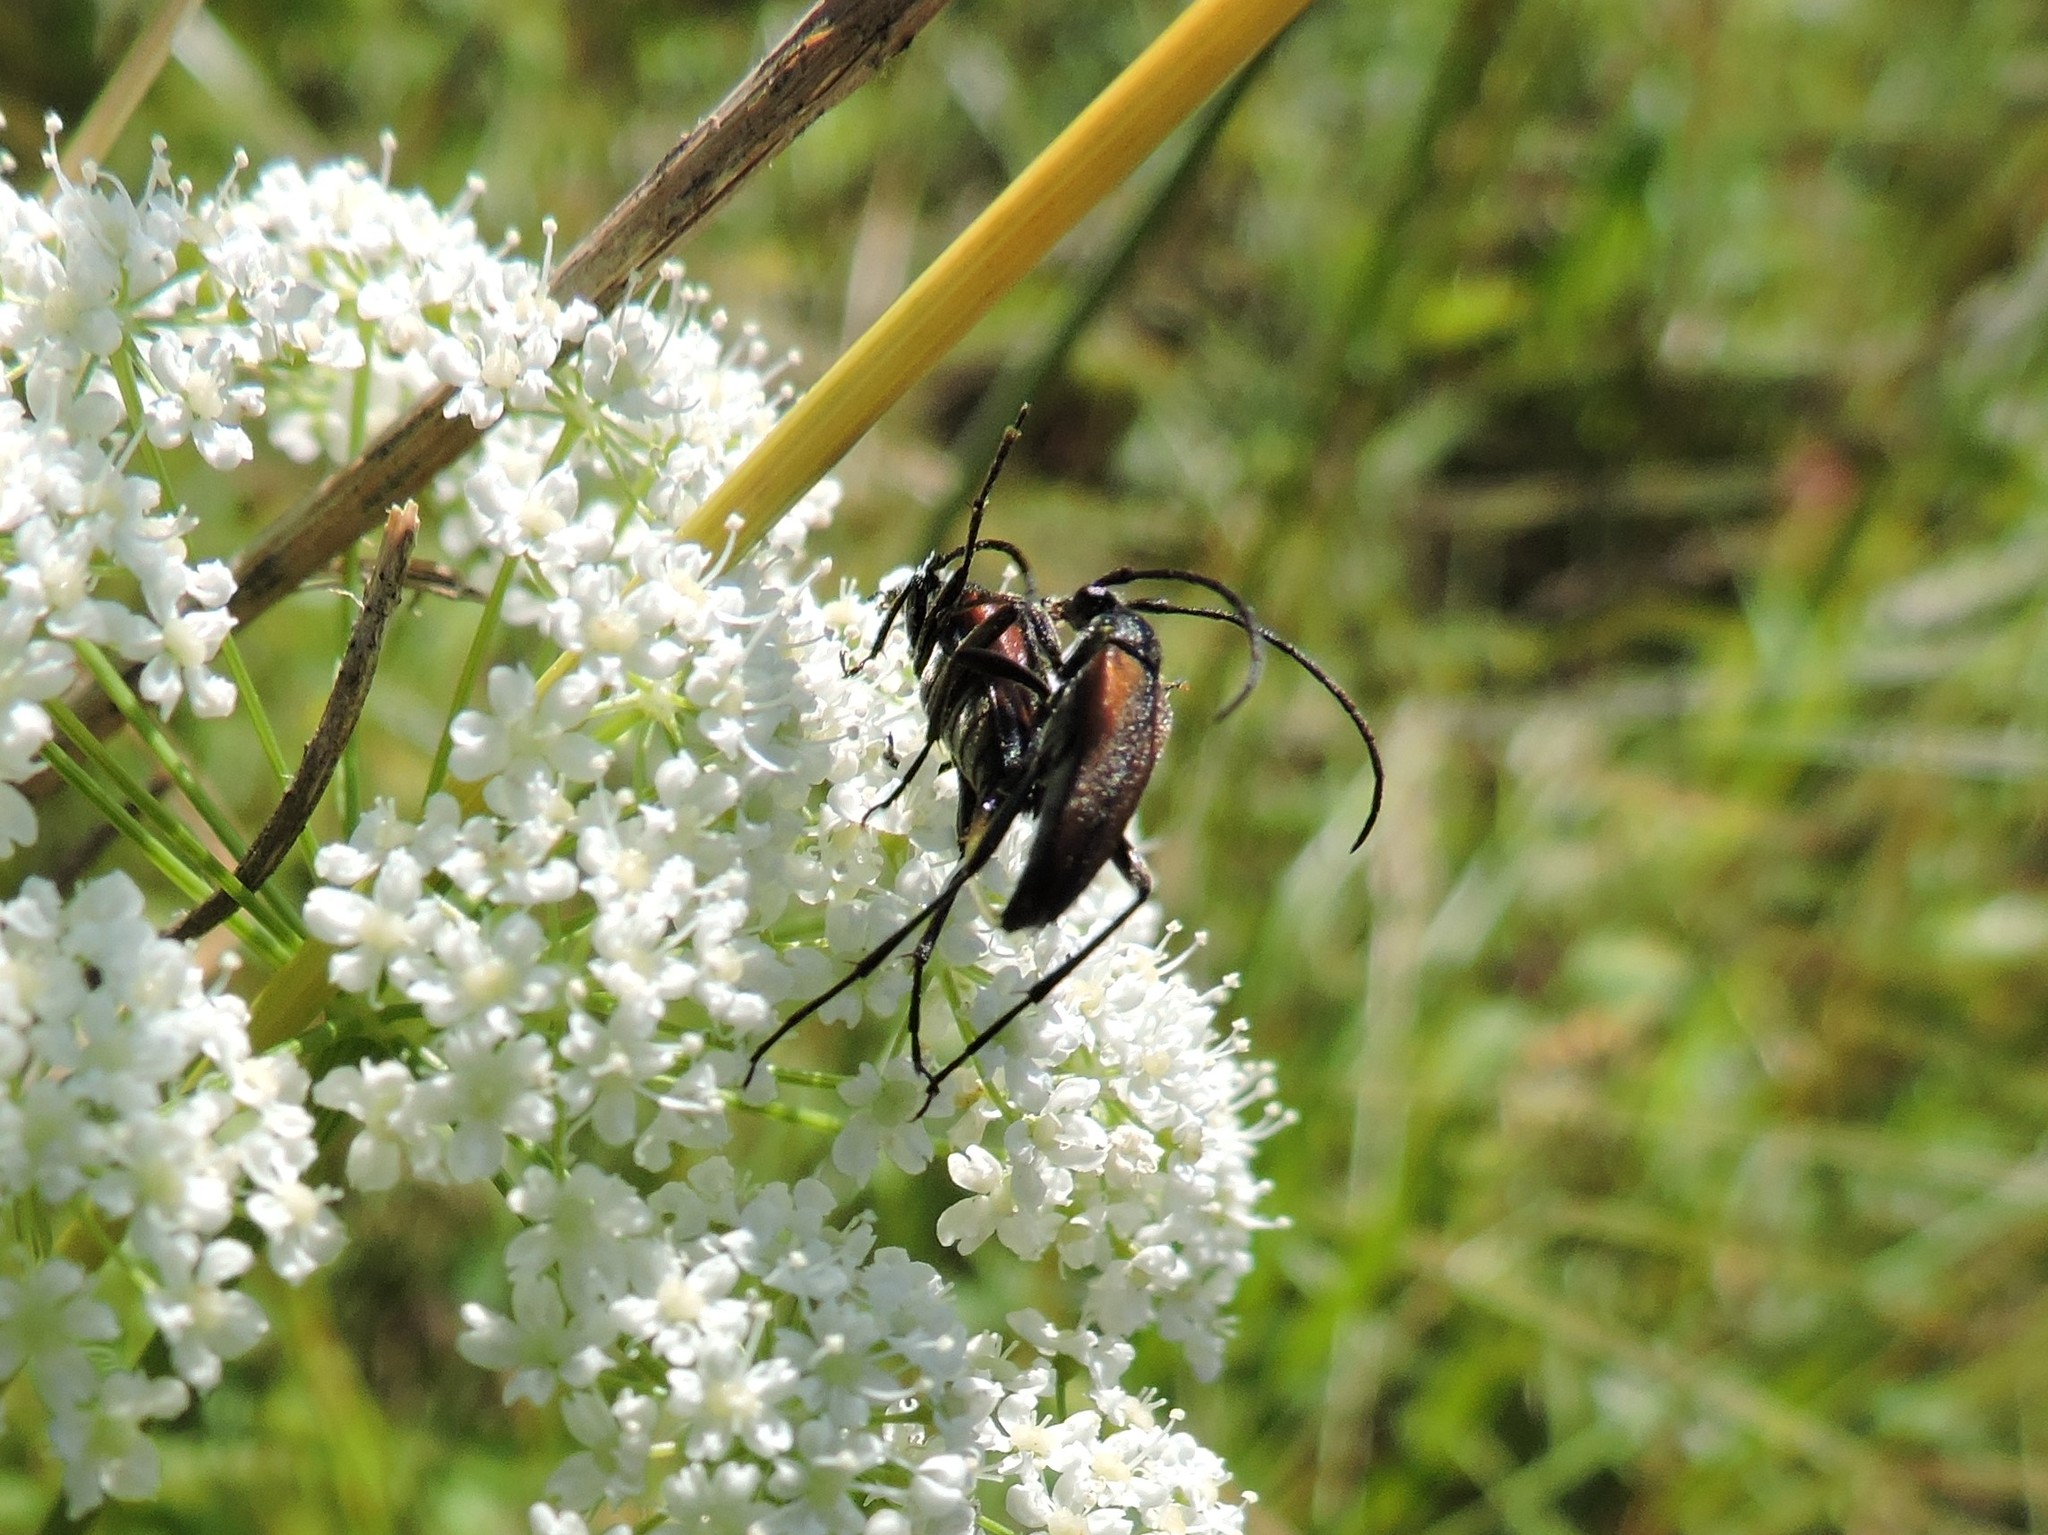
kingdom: Animalia
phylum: Arthropoda
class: Insecta
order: Coleoptera
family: Cerambycidae
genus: Stenurella
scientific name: Stenurella melanura
